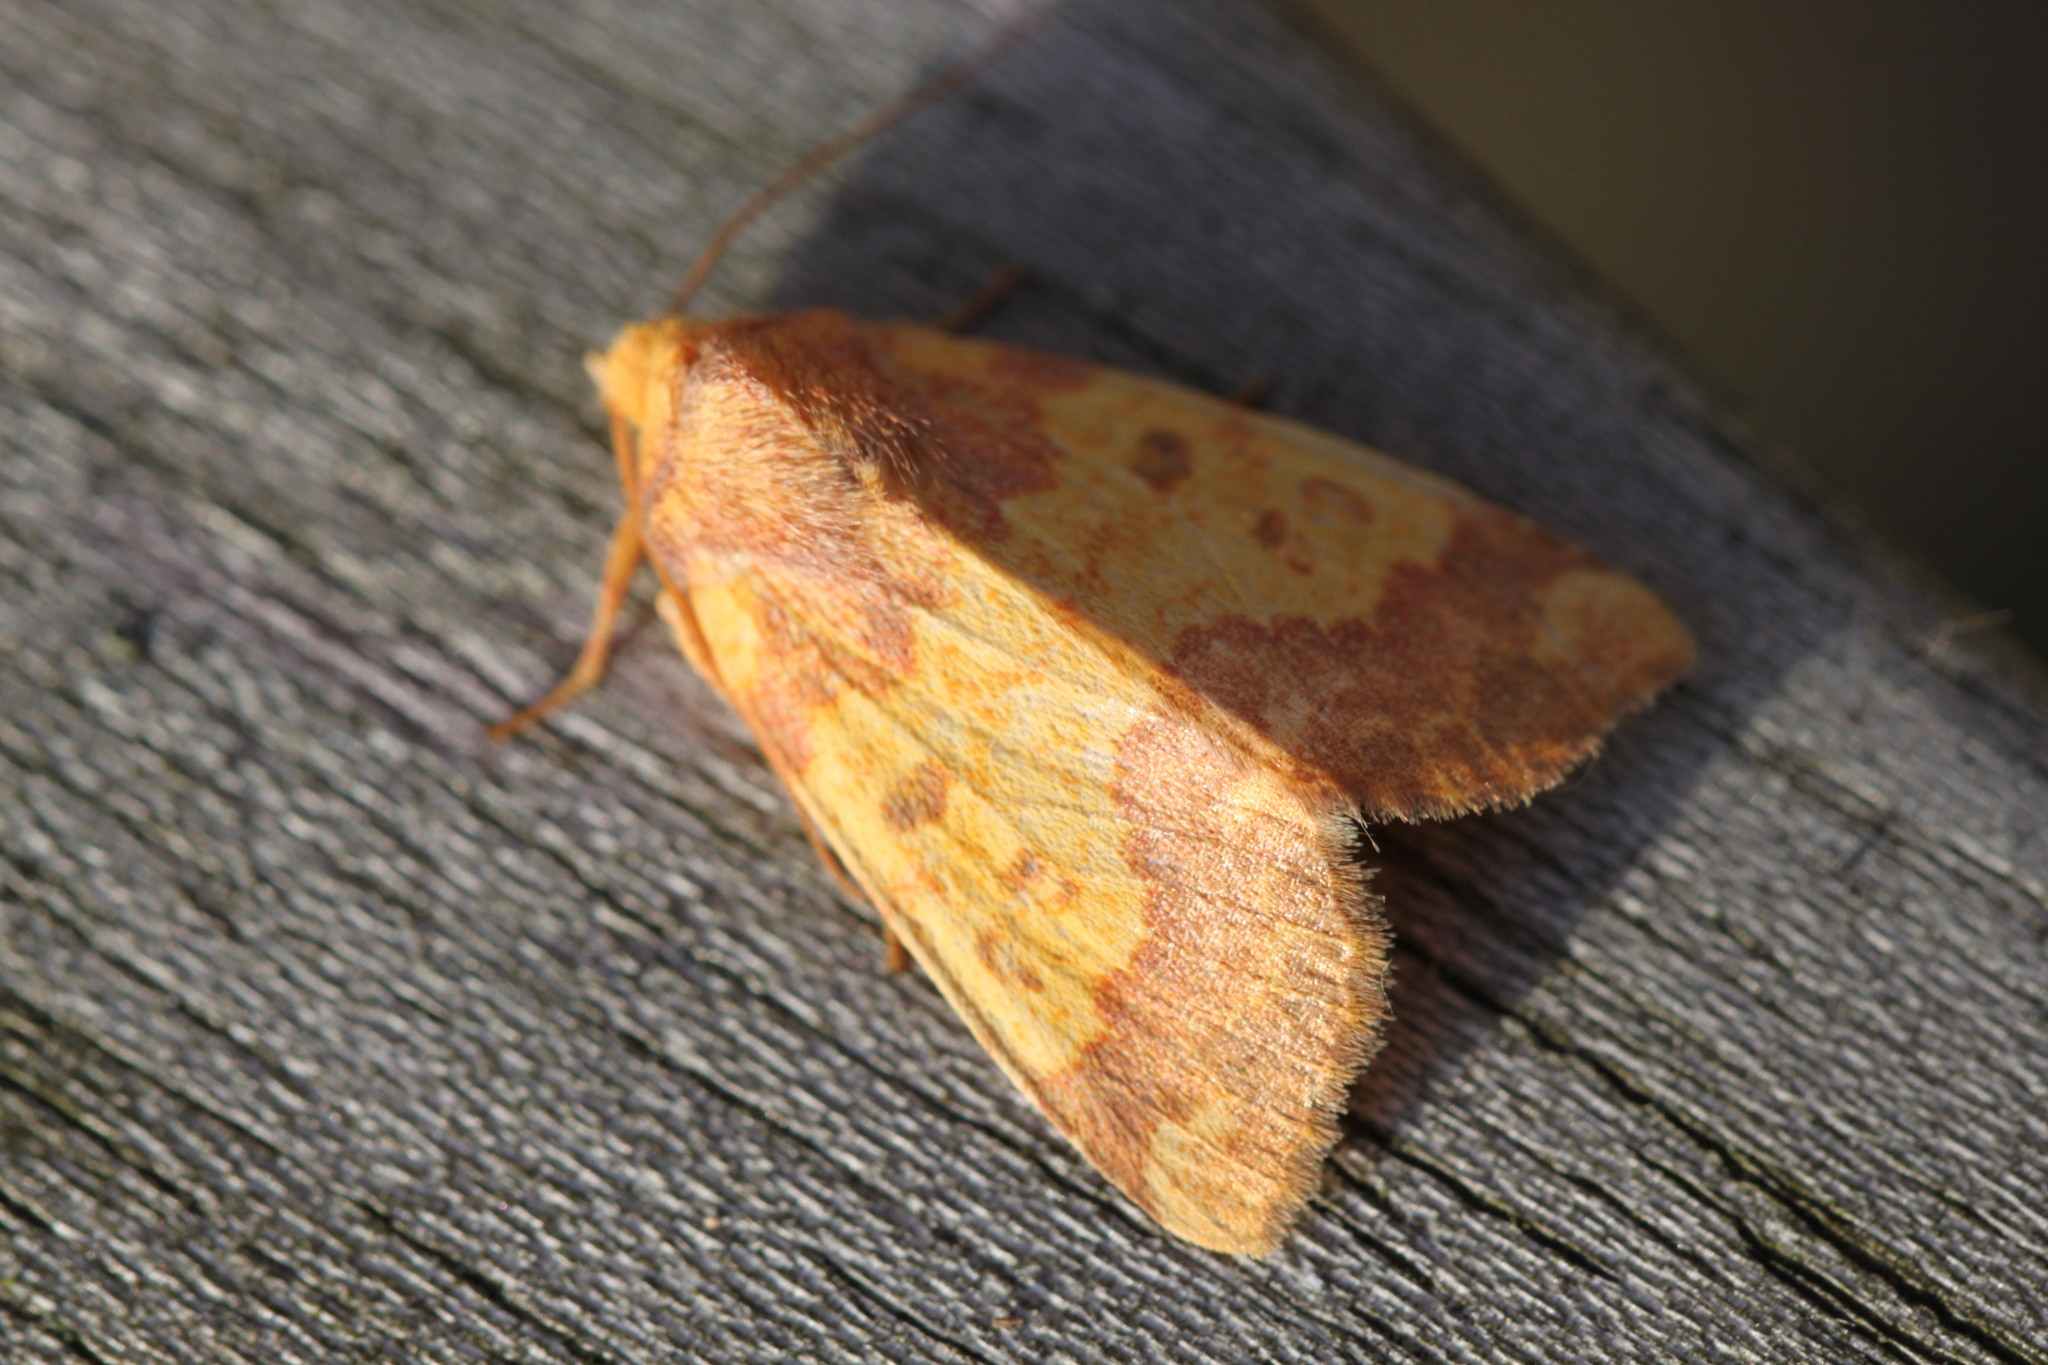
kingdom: Animalia
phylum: Arthropoda
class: Insecta
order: Lepidoptera
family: Noctuidae
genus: Tiliacea
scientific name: Tiliacea aurago
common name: Barred sallow
